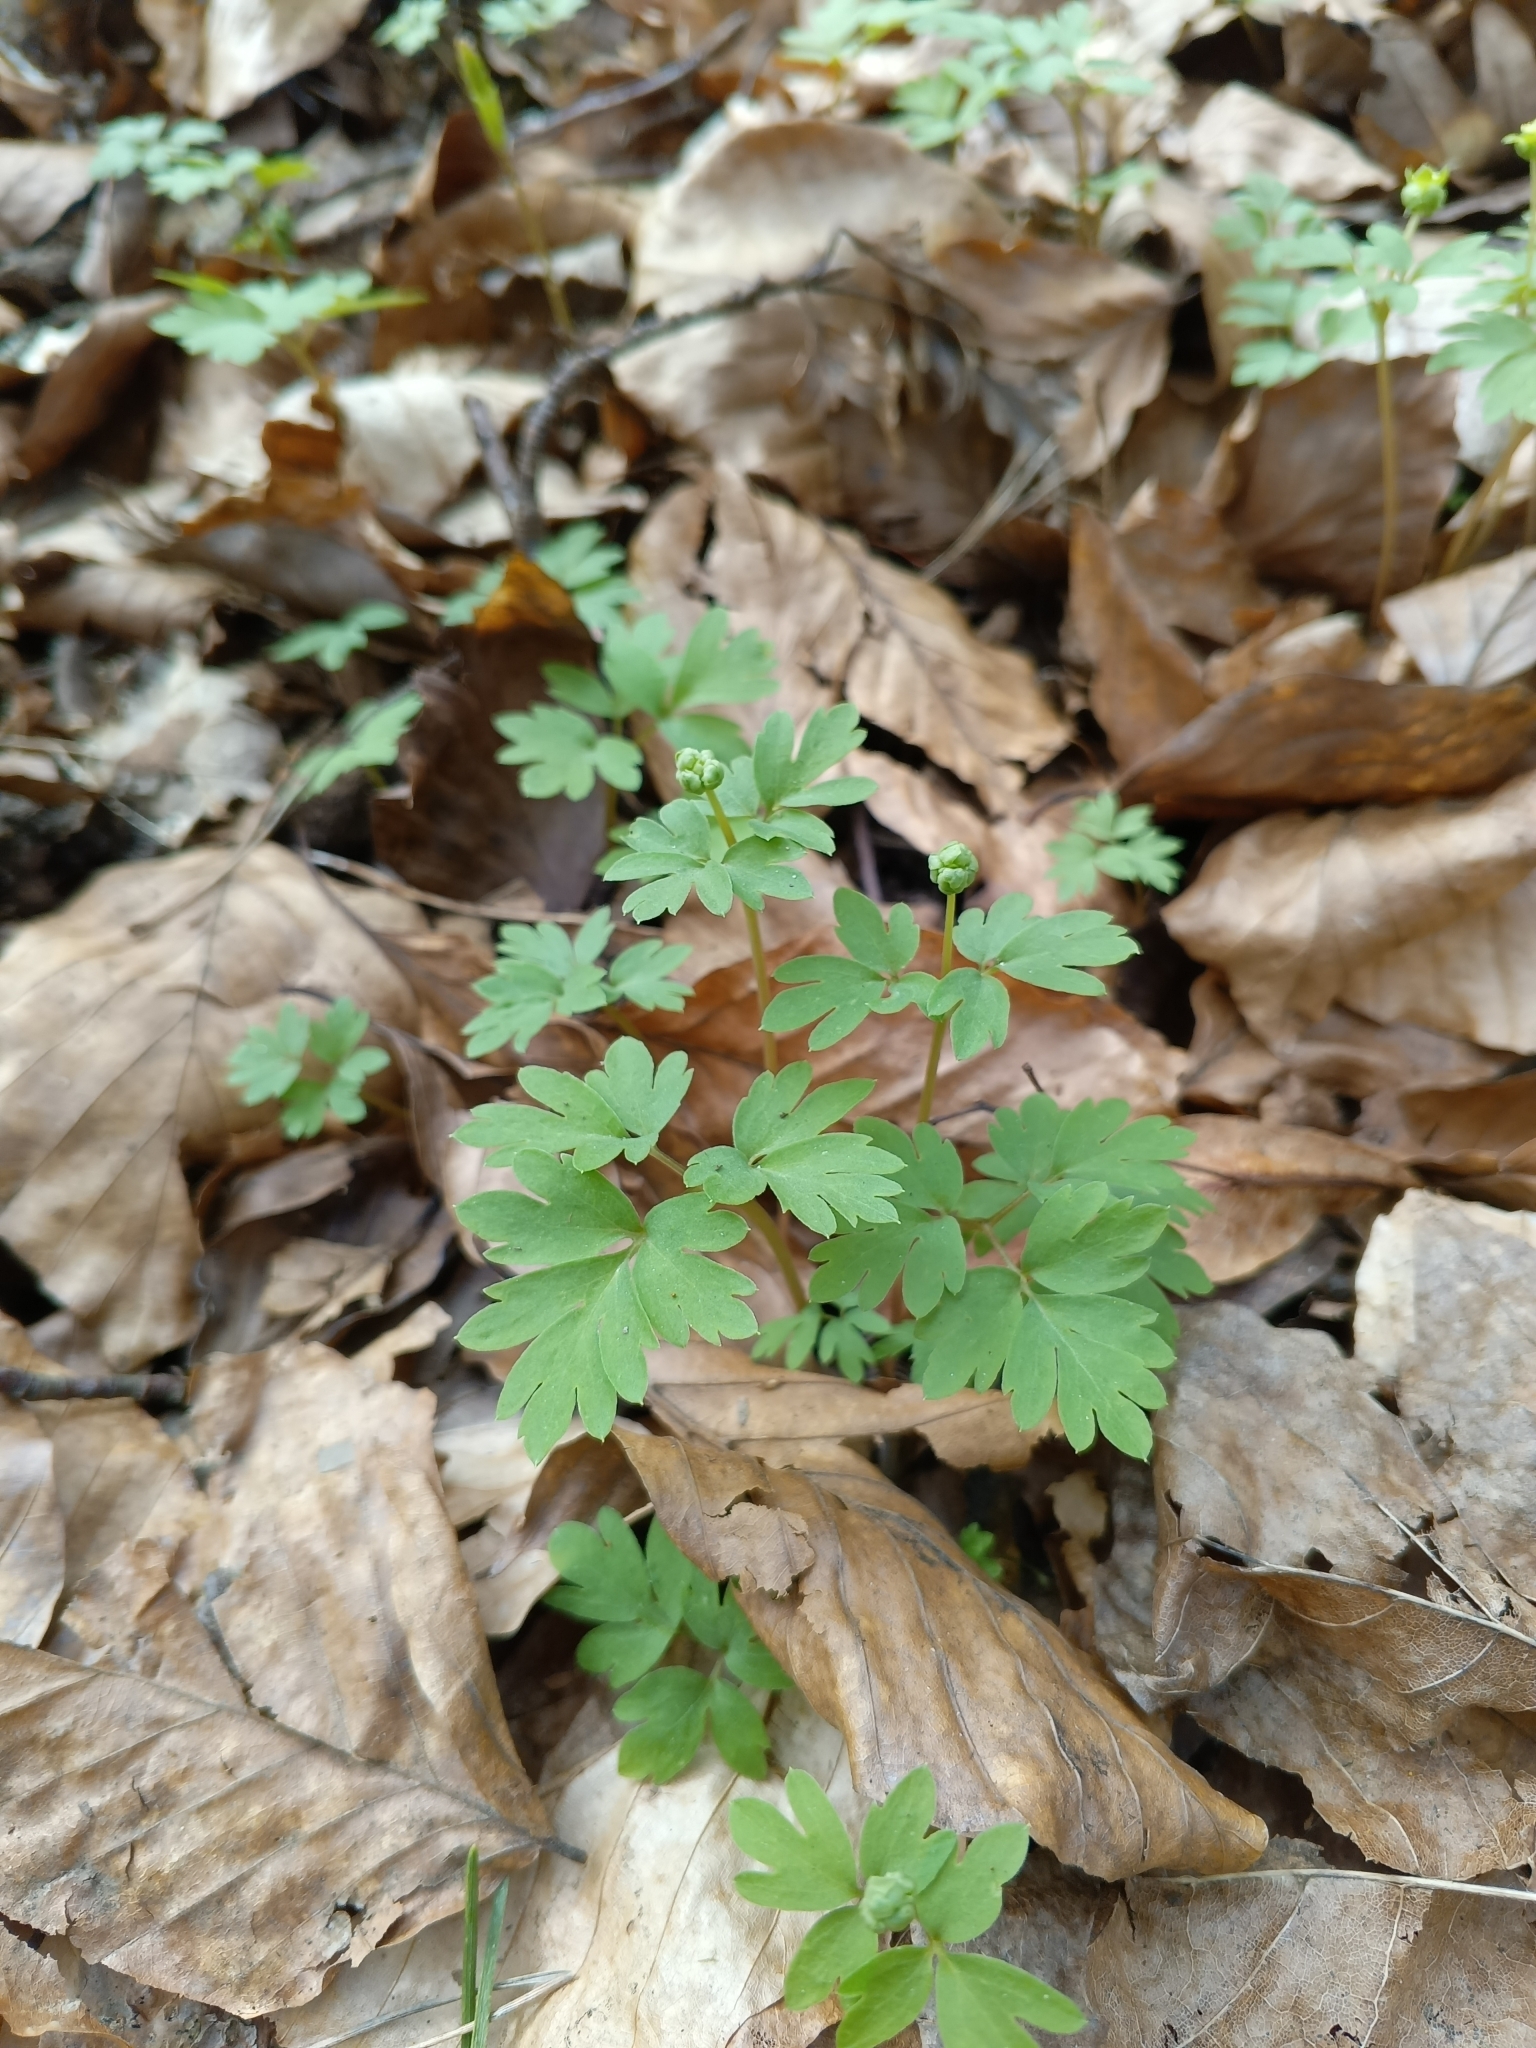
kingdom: Plantae
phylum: Tracheophyta
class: Magnoliopsida
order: Dipsacales
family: Viburnaceae
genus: Adoxa
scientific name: Adoxa moschatellina
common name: Moschatel
